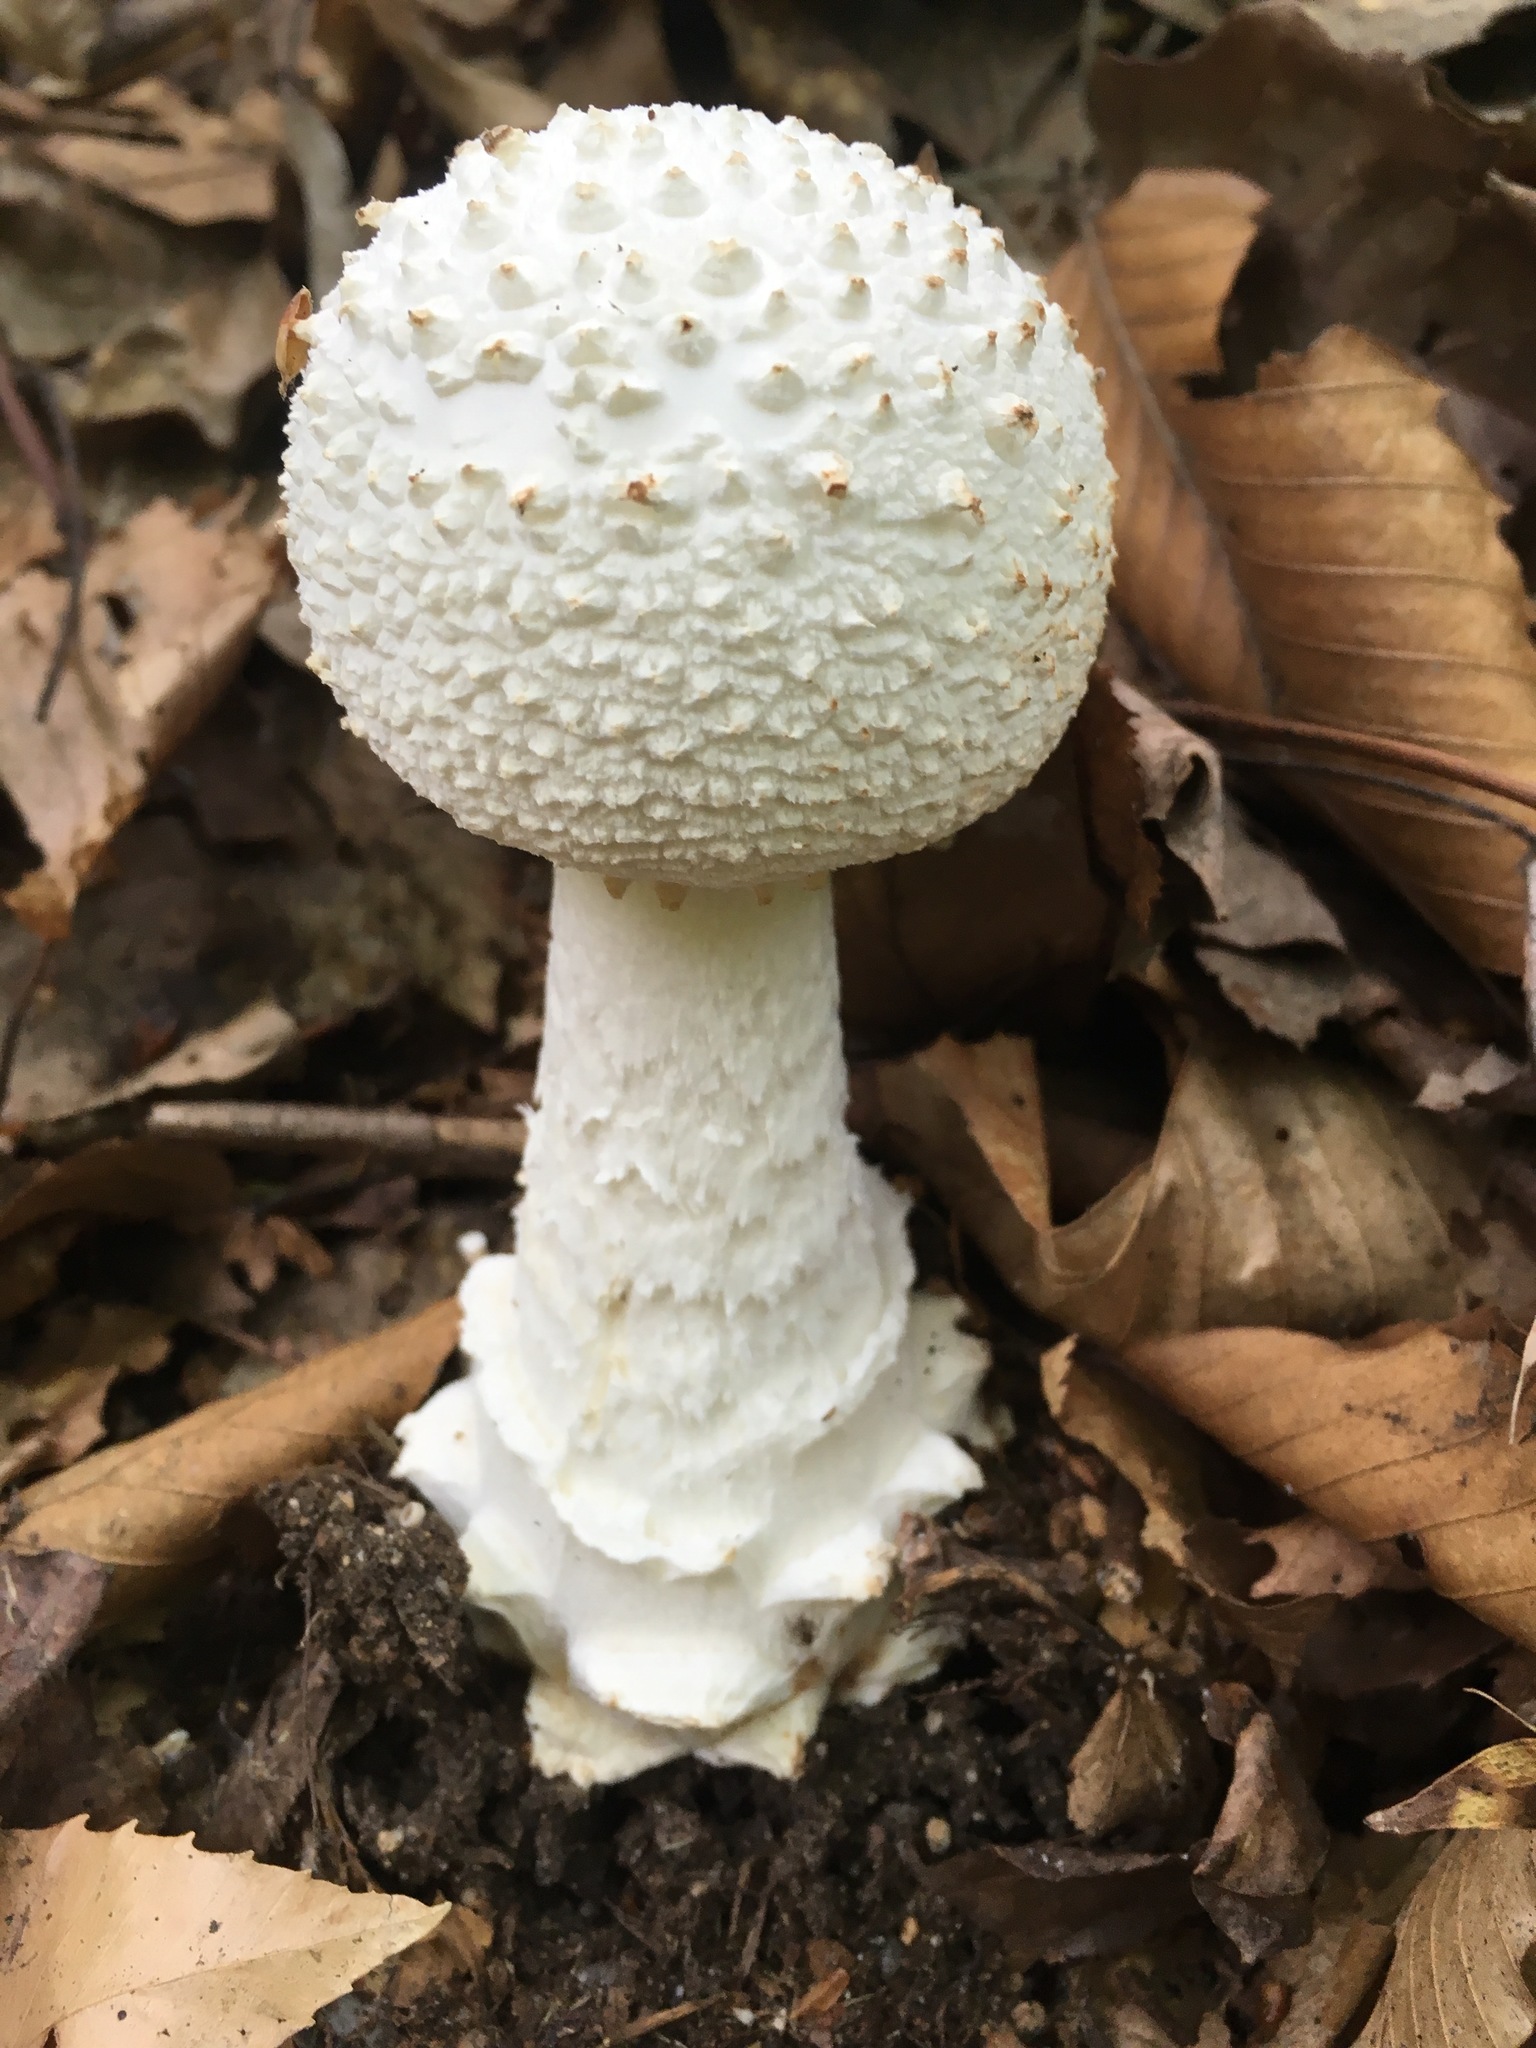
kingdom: Fungi
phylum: Basidiomycota
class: Agaricomycetes
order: Agaricales
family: Amanitaceae
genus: Amanita
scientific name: Amanita cokeri
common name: Coker's amanita
